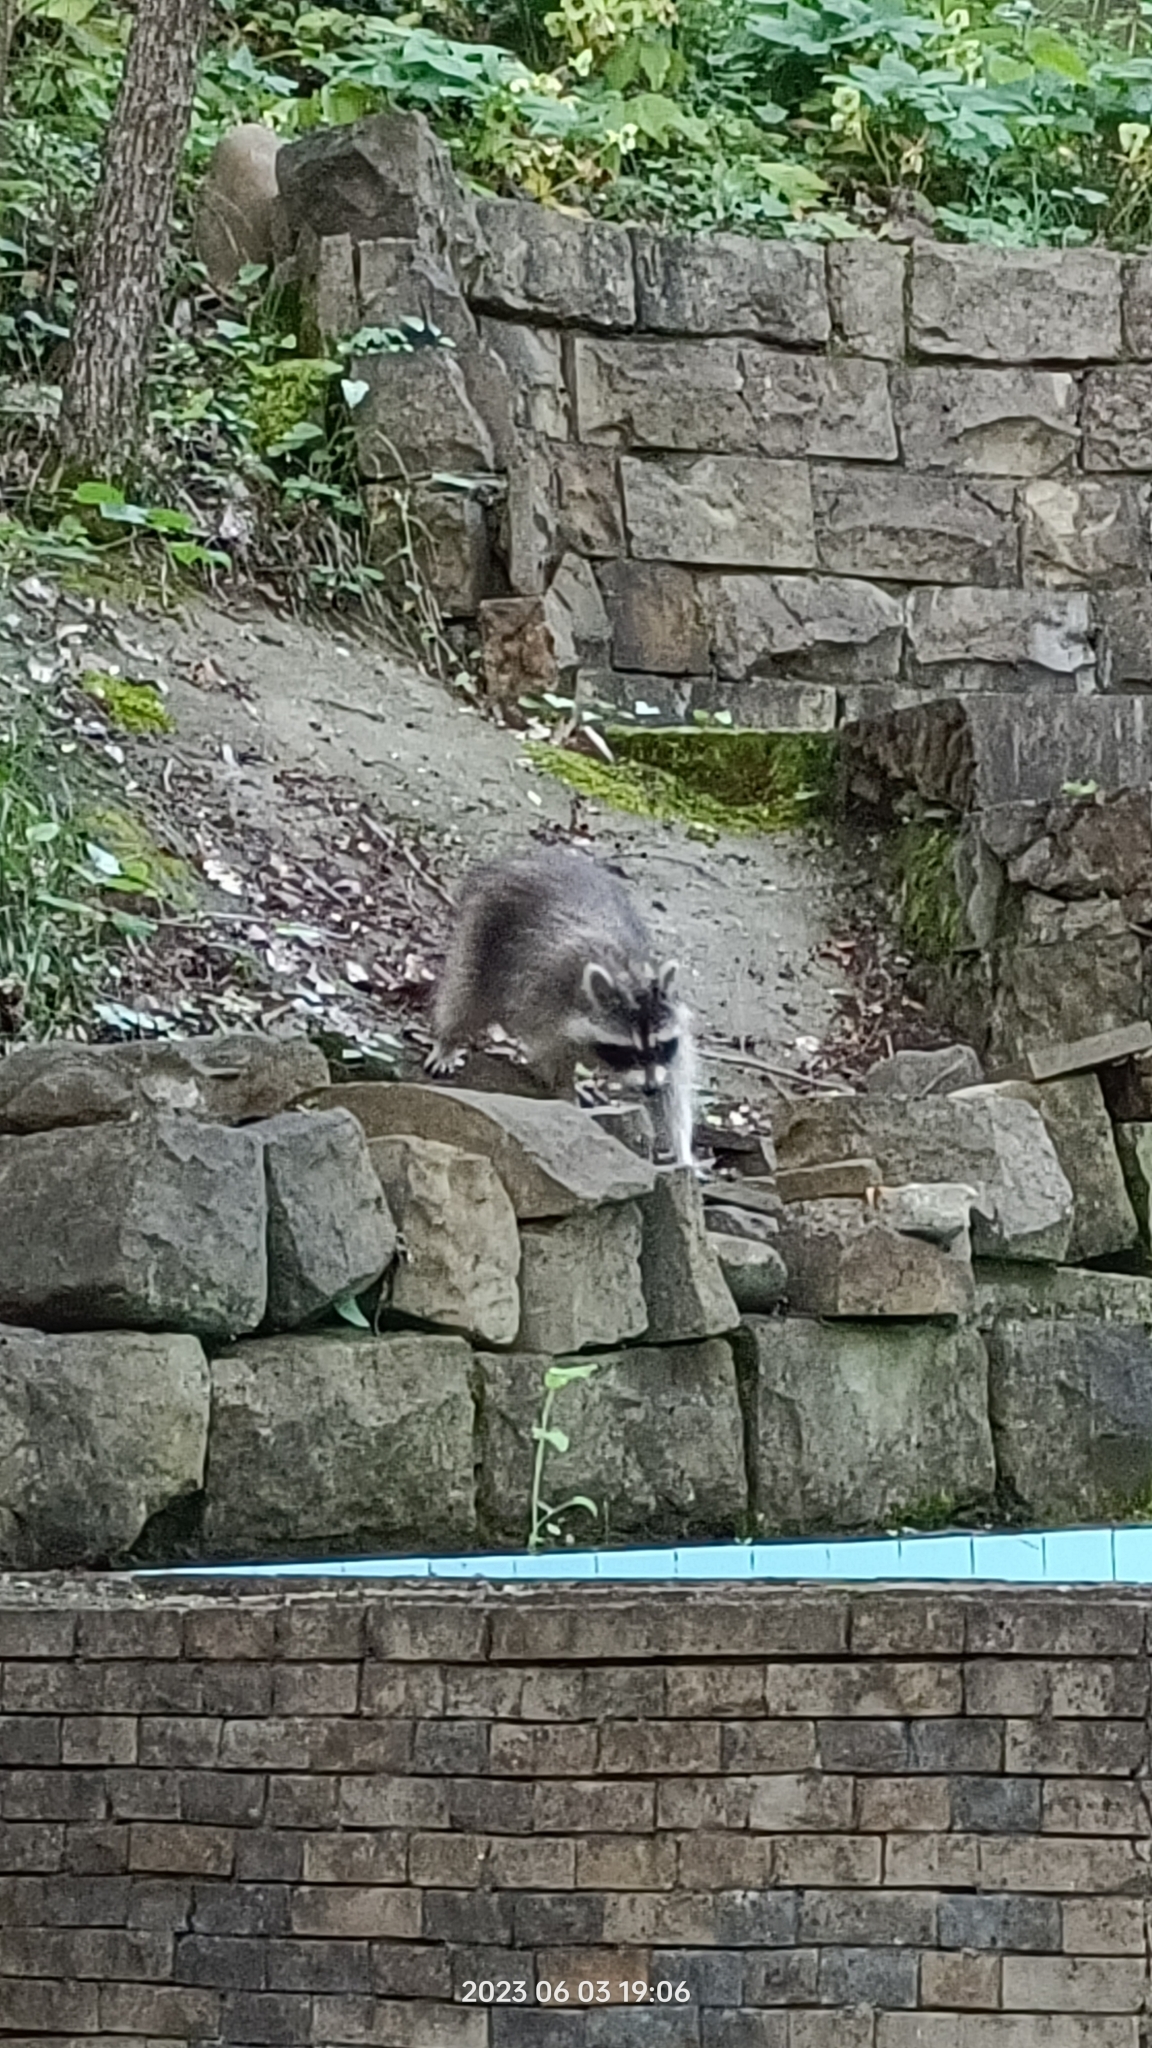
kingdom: Animalia
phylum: Chordata
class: Mammalia
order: Carnivora
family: Procyonidae
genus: Procyon
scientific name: Procyon lotor
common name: Raccoon
